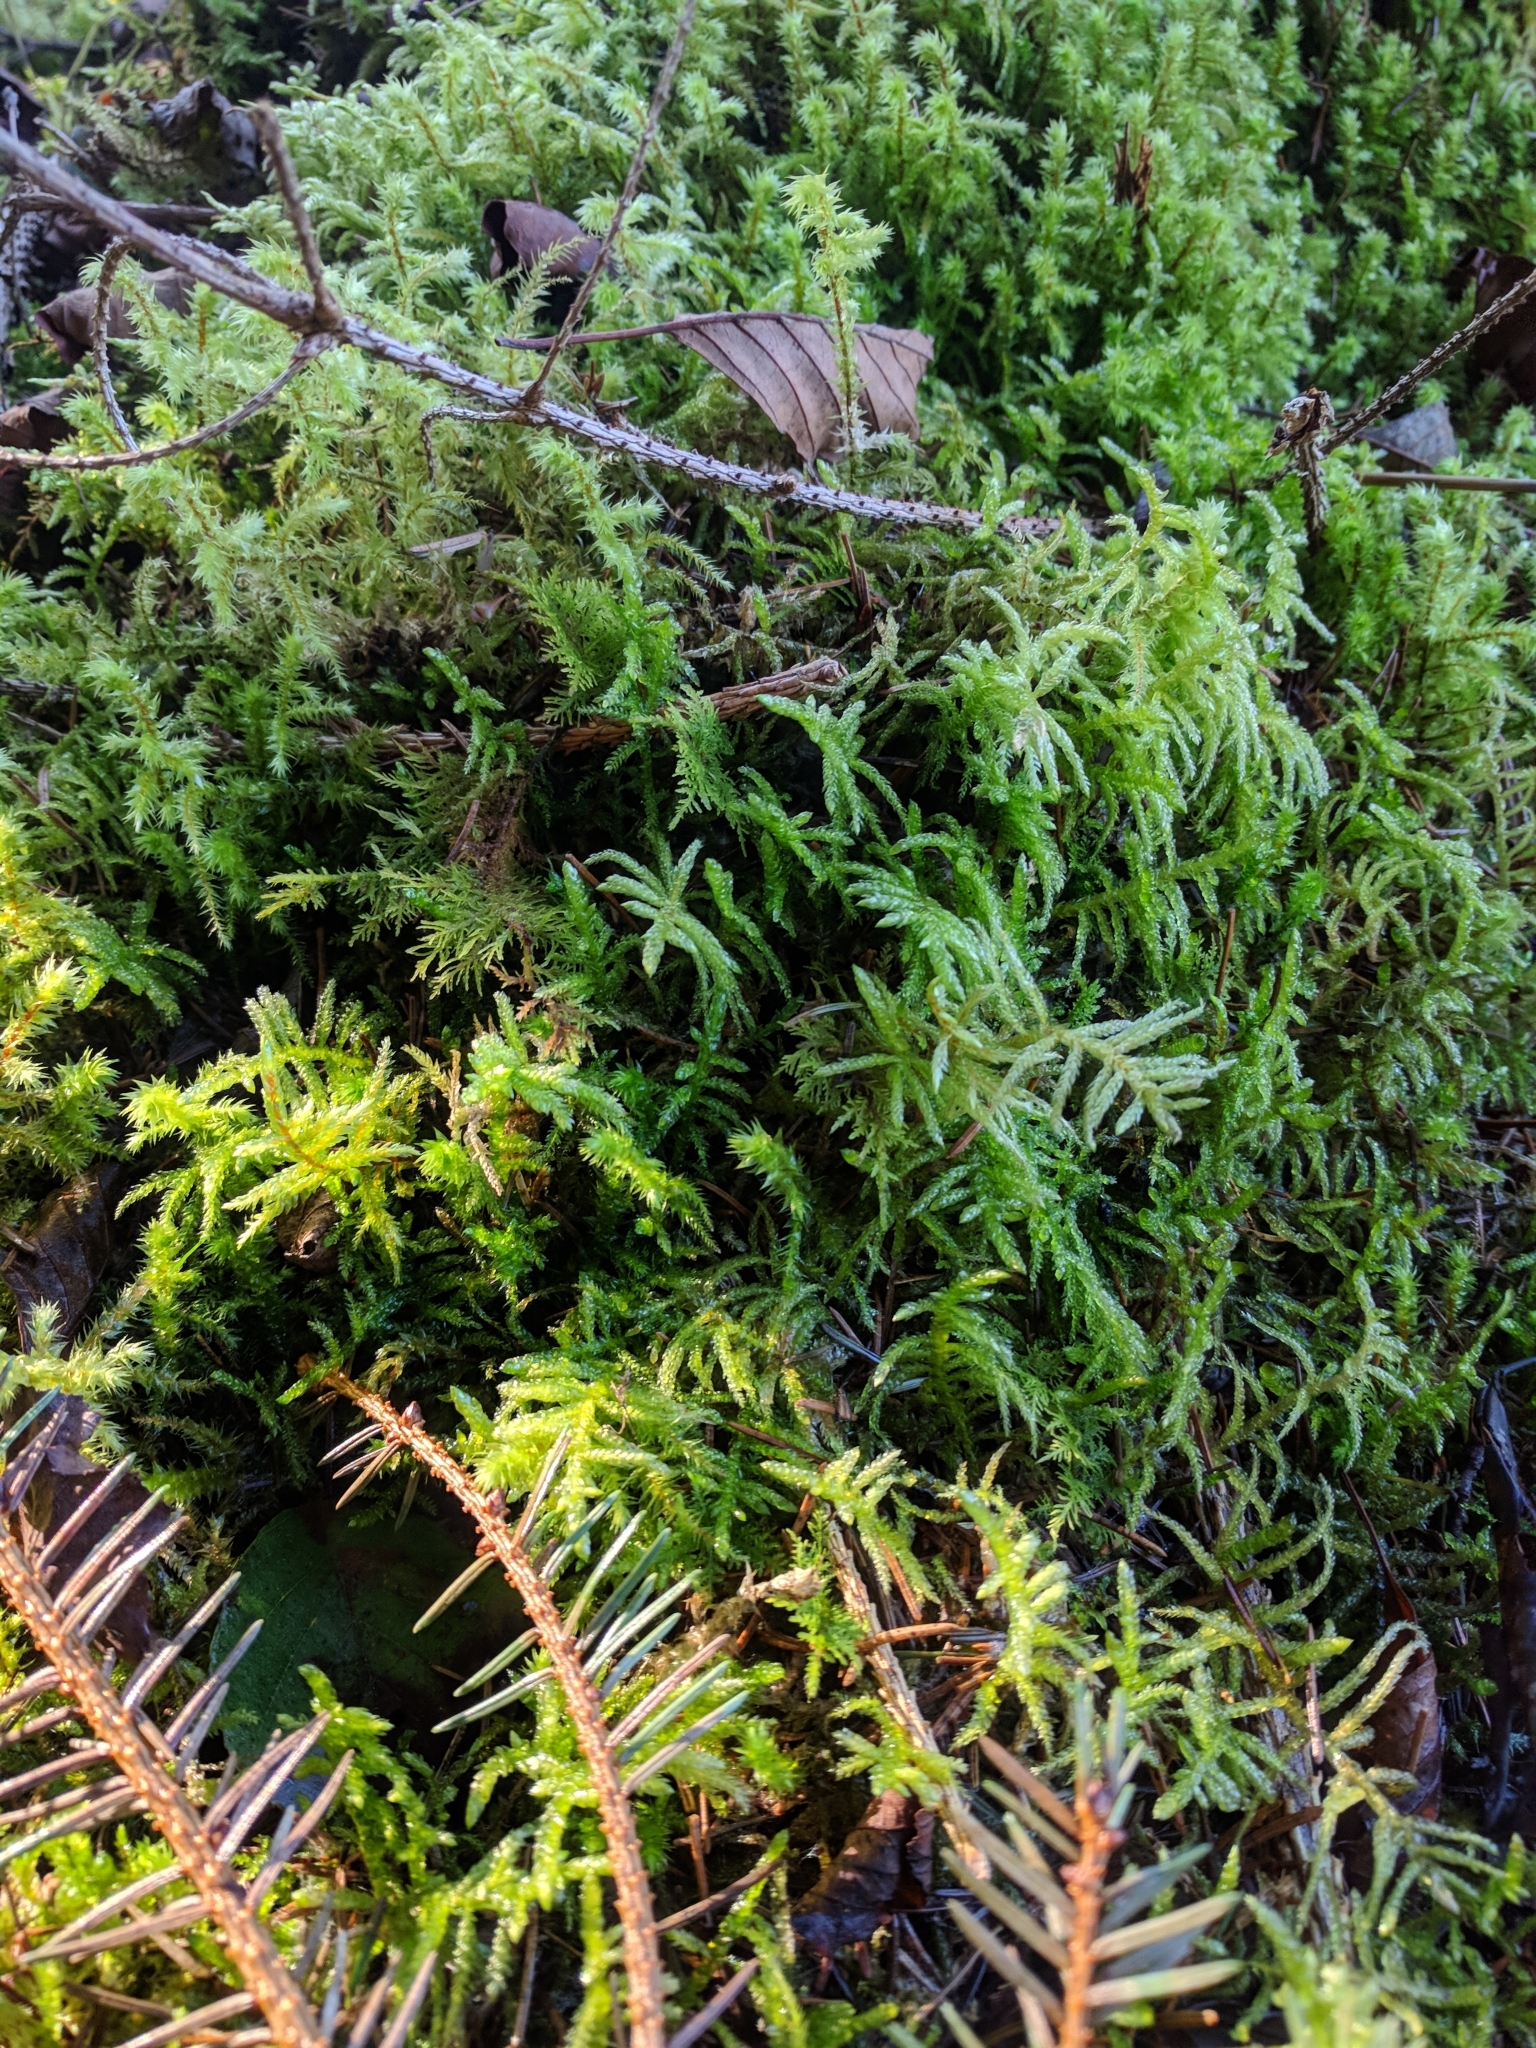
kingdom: Plantae
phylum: Bryophyta
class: Bryopsida
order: Hypnales
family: Brachytheciaceae
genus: Pseudoscleropodium
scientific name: Pseudoscleropodium purum
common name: Neat feather-moss
